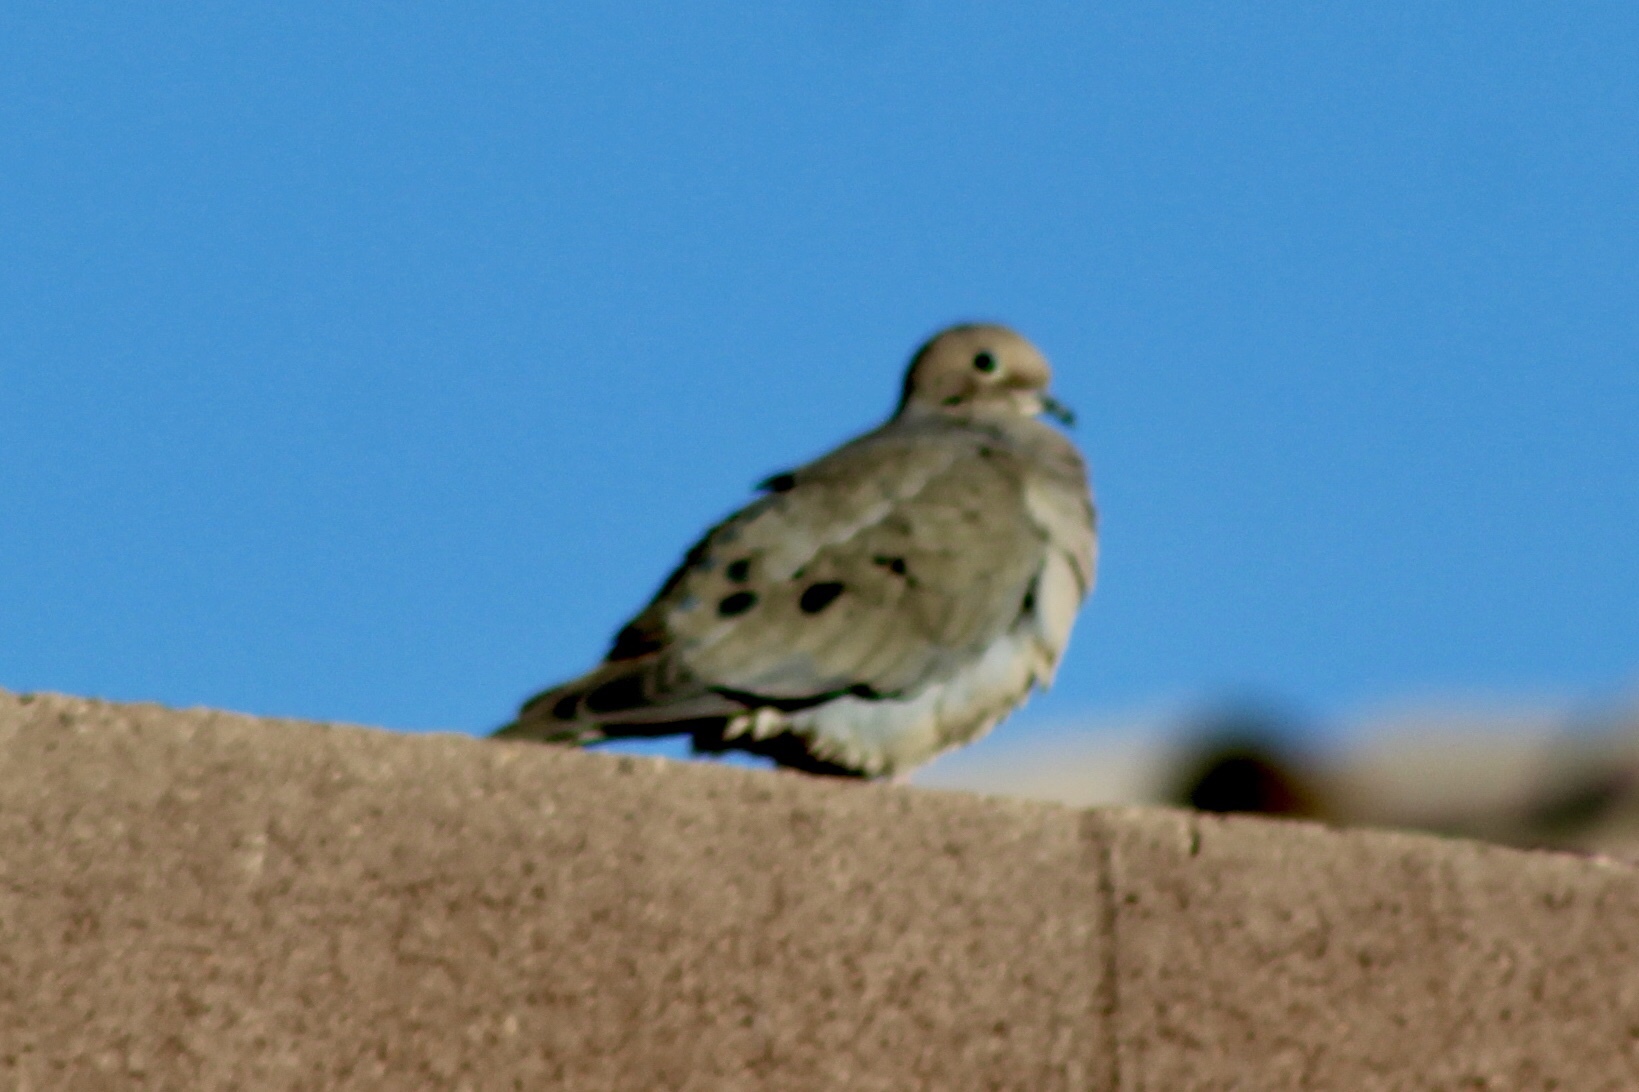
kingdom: Animalia
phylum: Chordata
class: Aves
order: Columbiformes
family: Columbidae
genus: Zenaida
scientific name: Zenaida macroura
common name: Mourning dove
